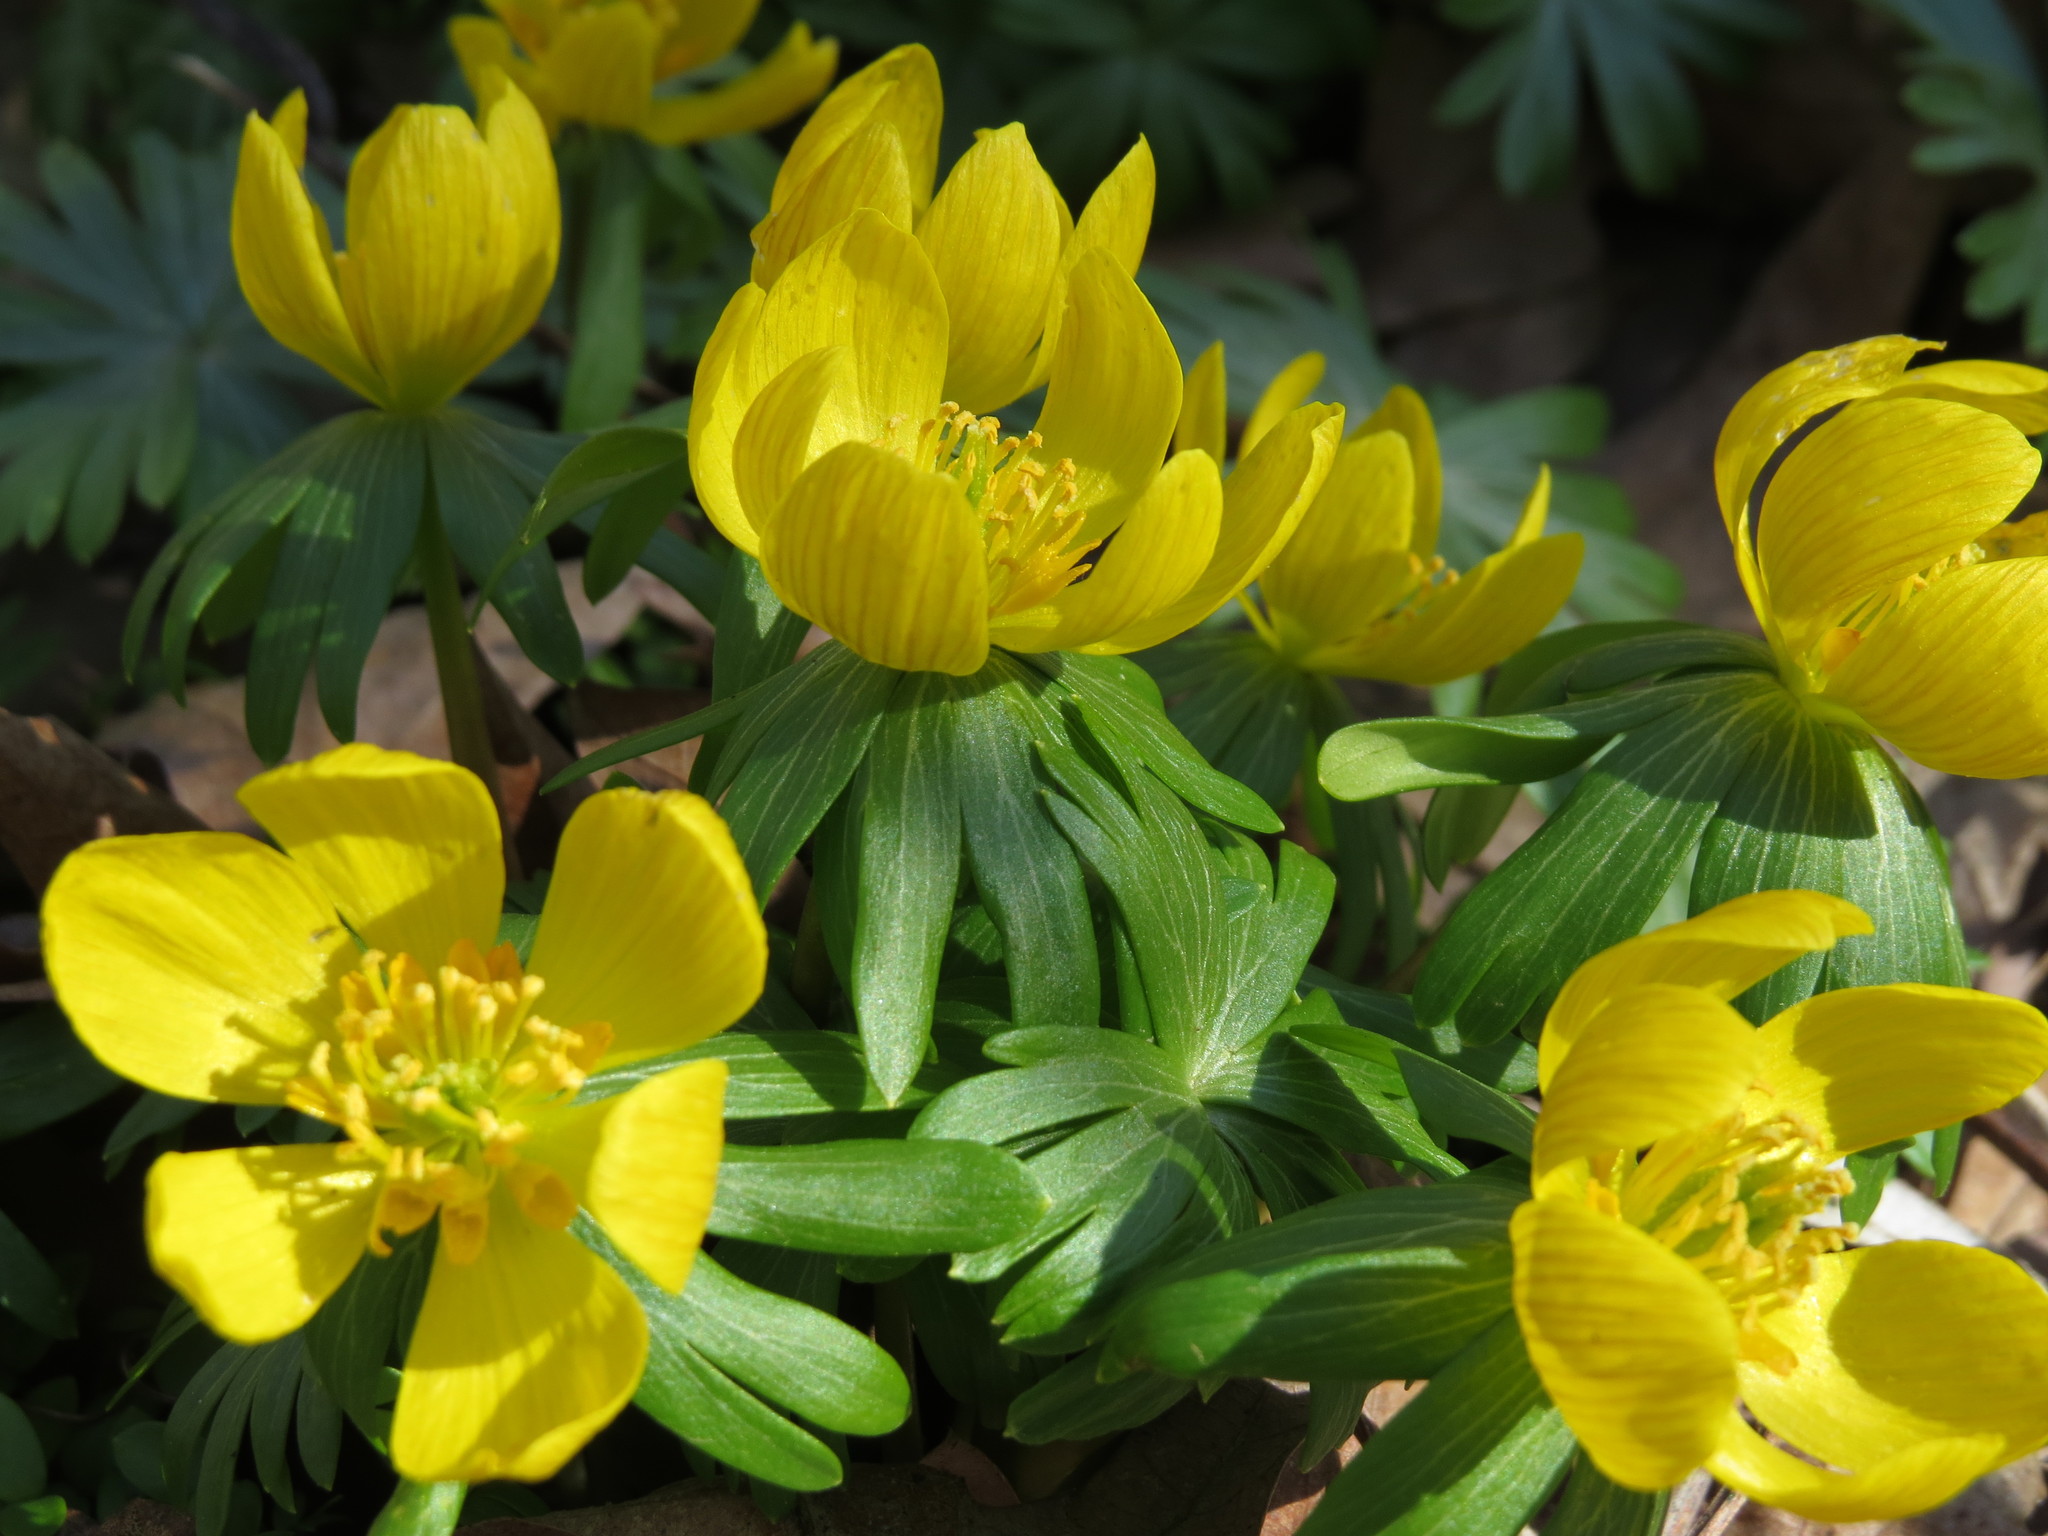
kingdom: Plantae
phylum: Tracheophyta
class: Magnoliopsida
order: Ranunculales
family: Ranunculaceae
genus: Eranthis
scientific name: Eranthis hyemalis
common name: Winter aconite
